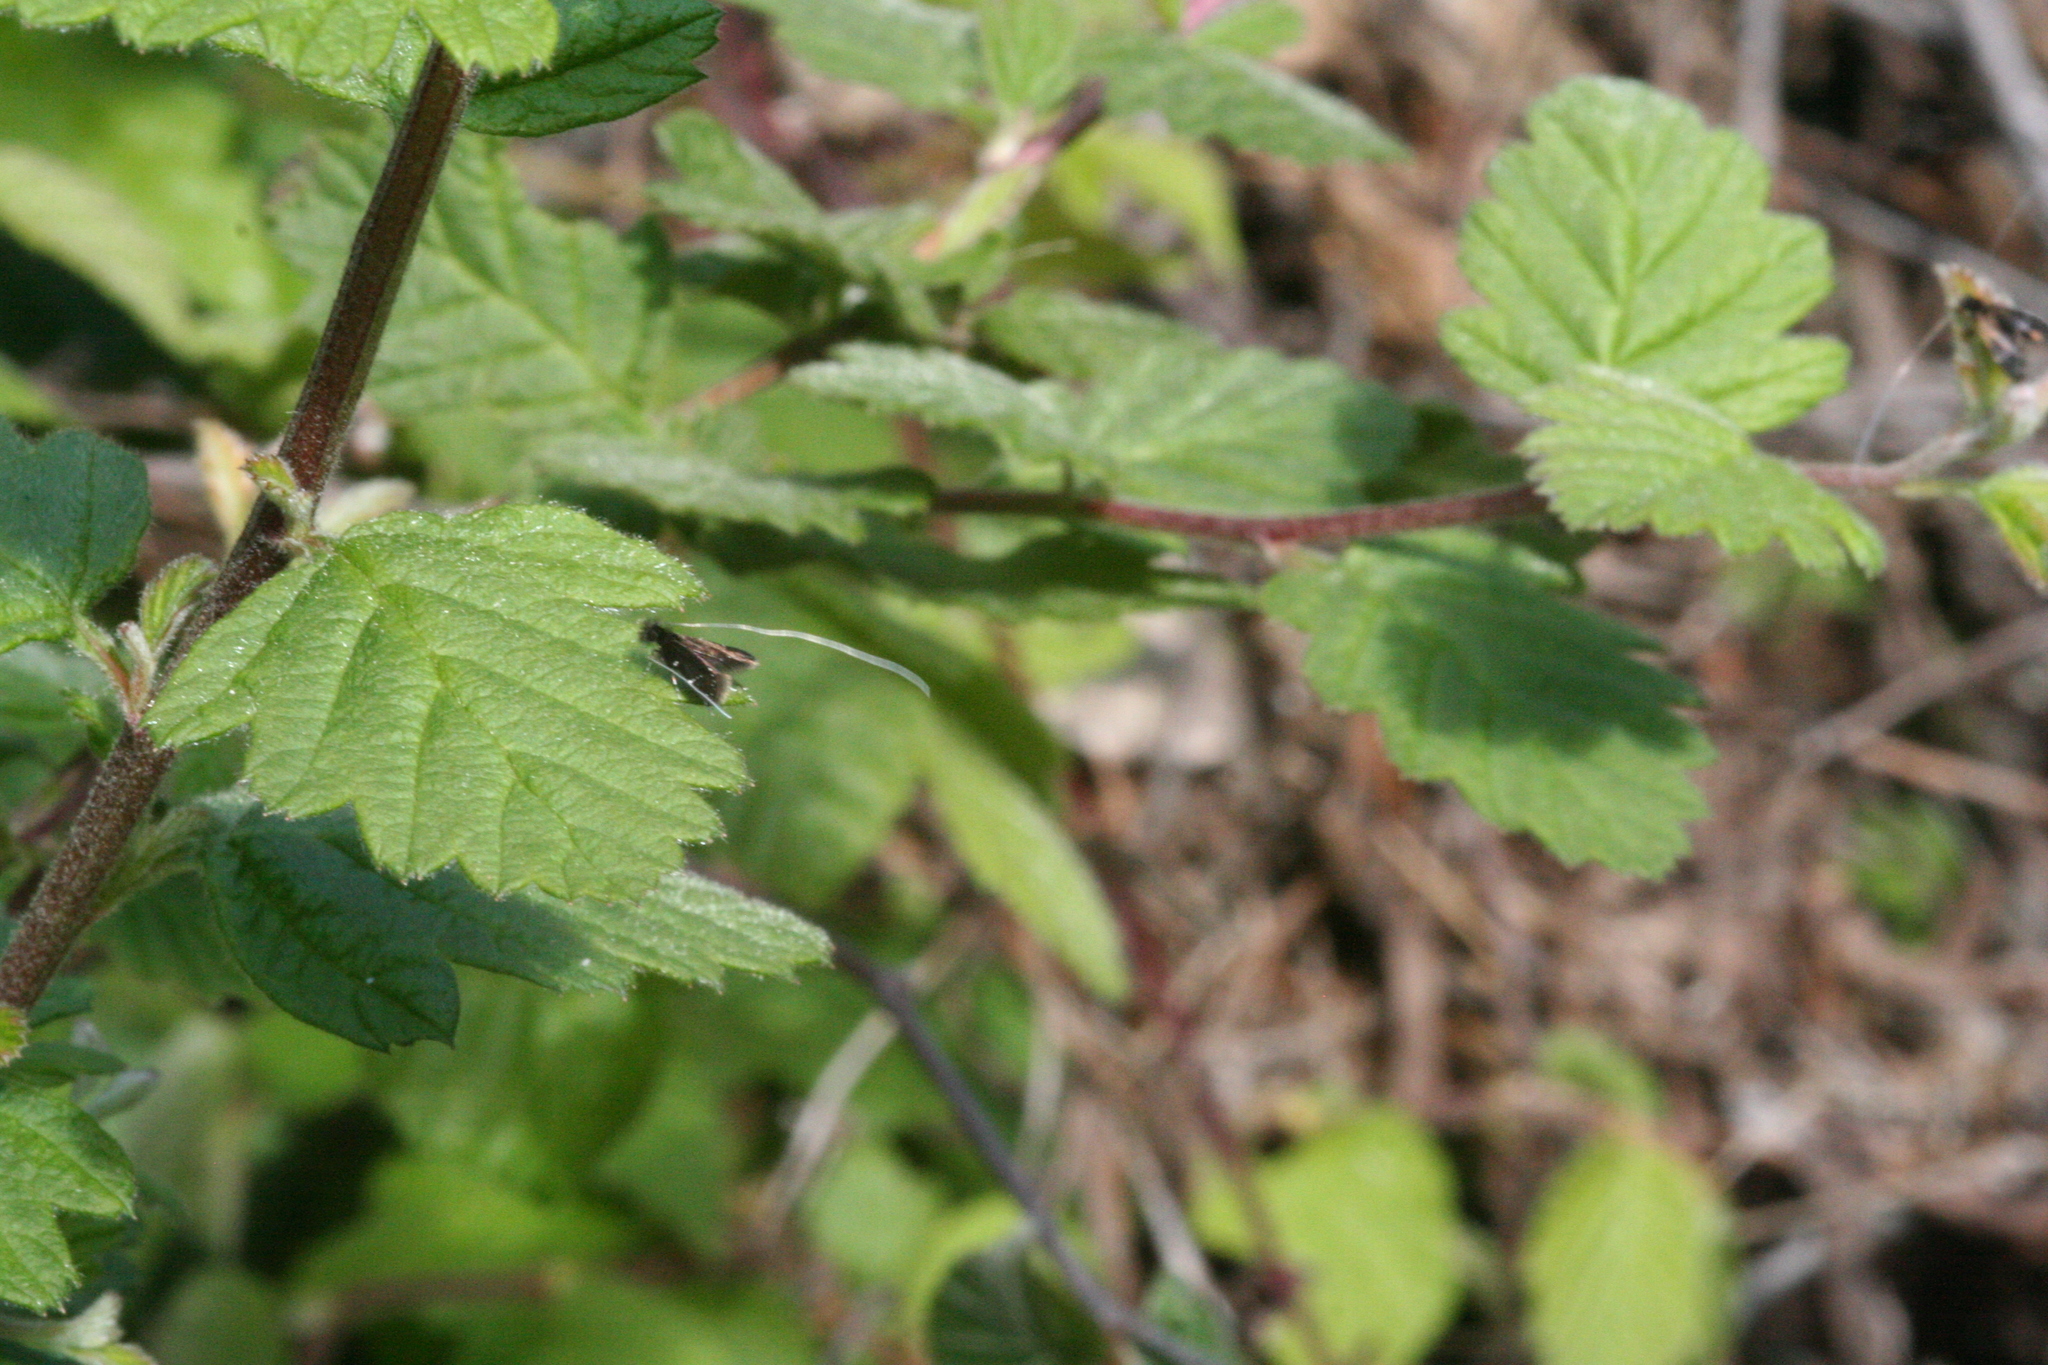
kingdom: Animalia
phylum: Arthropoda
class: Insecta
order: Lepidoptera
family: Adelidae
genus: Adela
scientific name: Adela septentrionella
